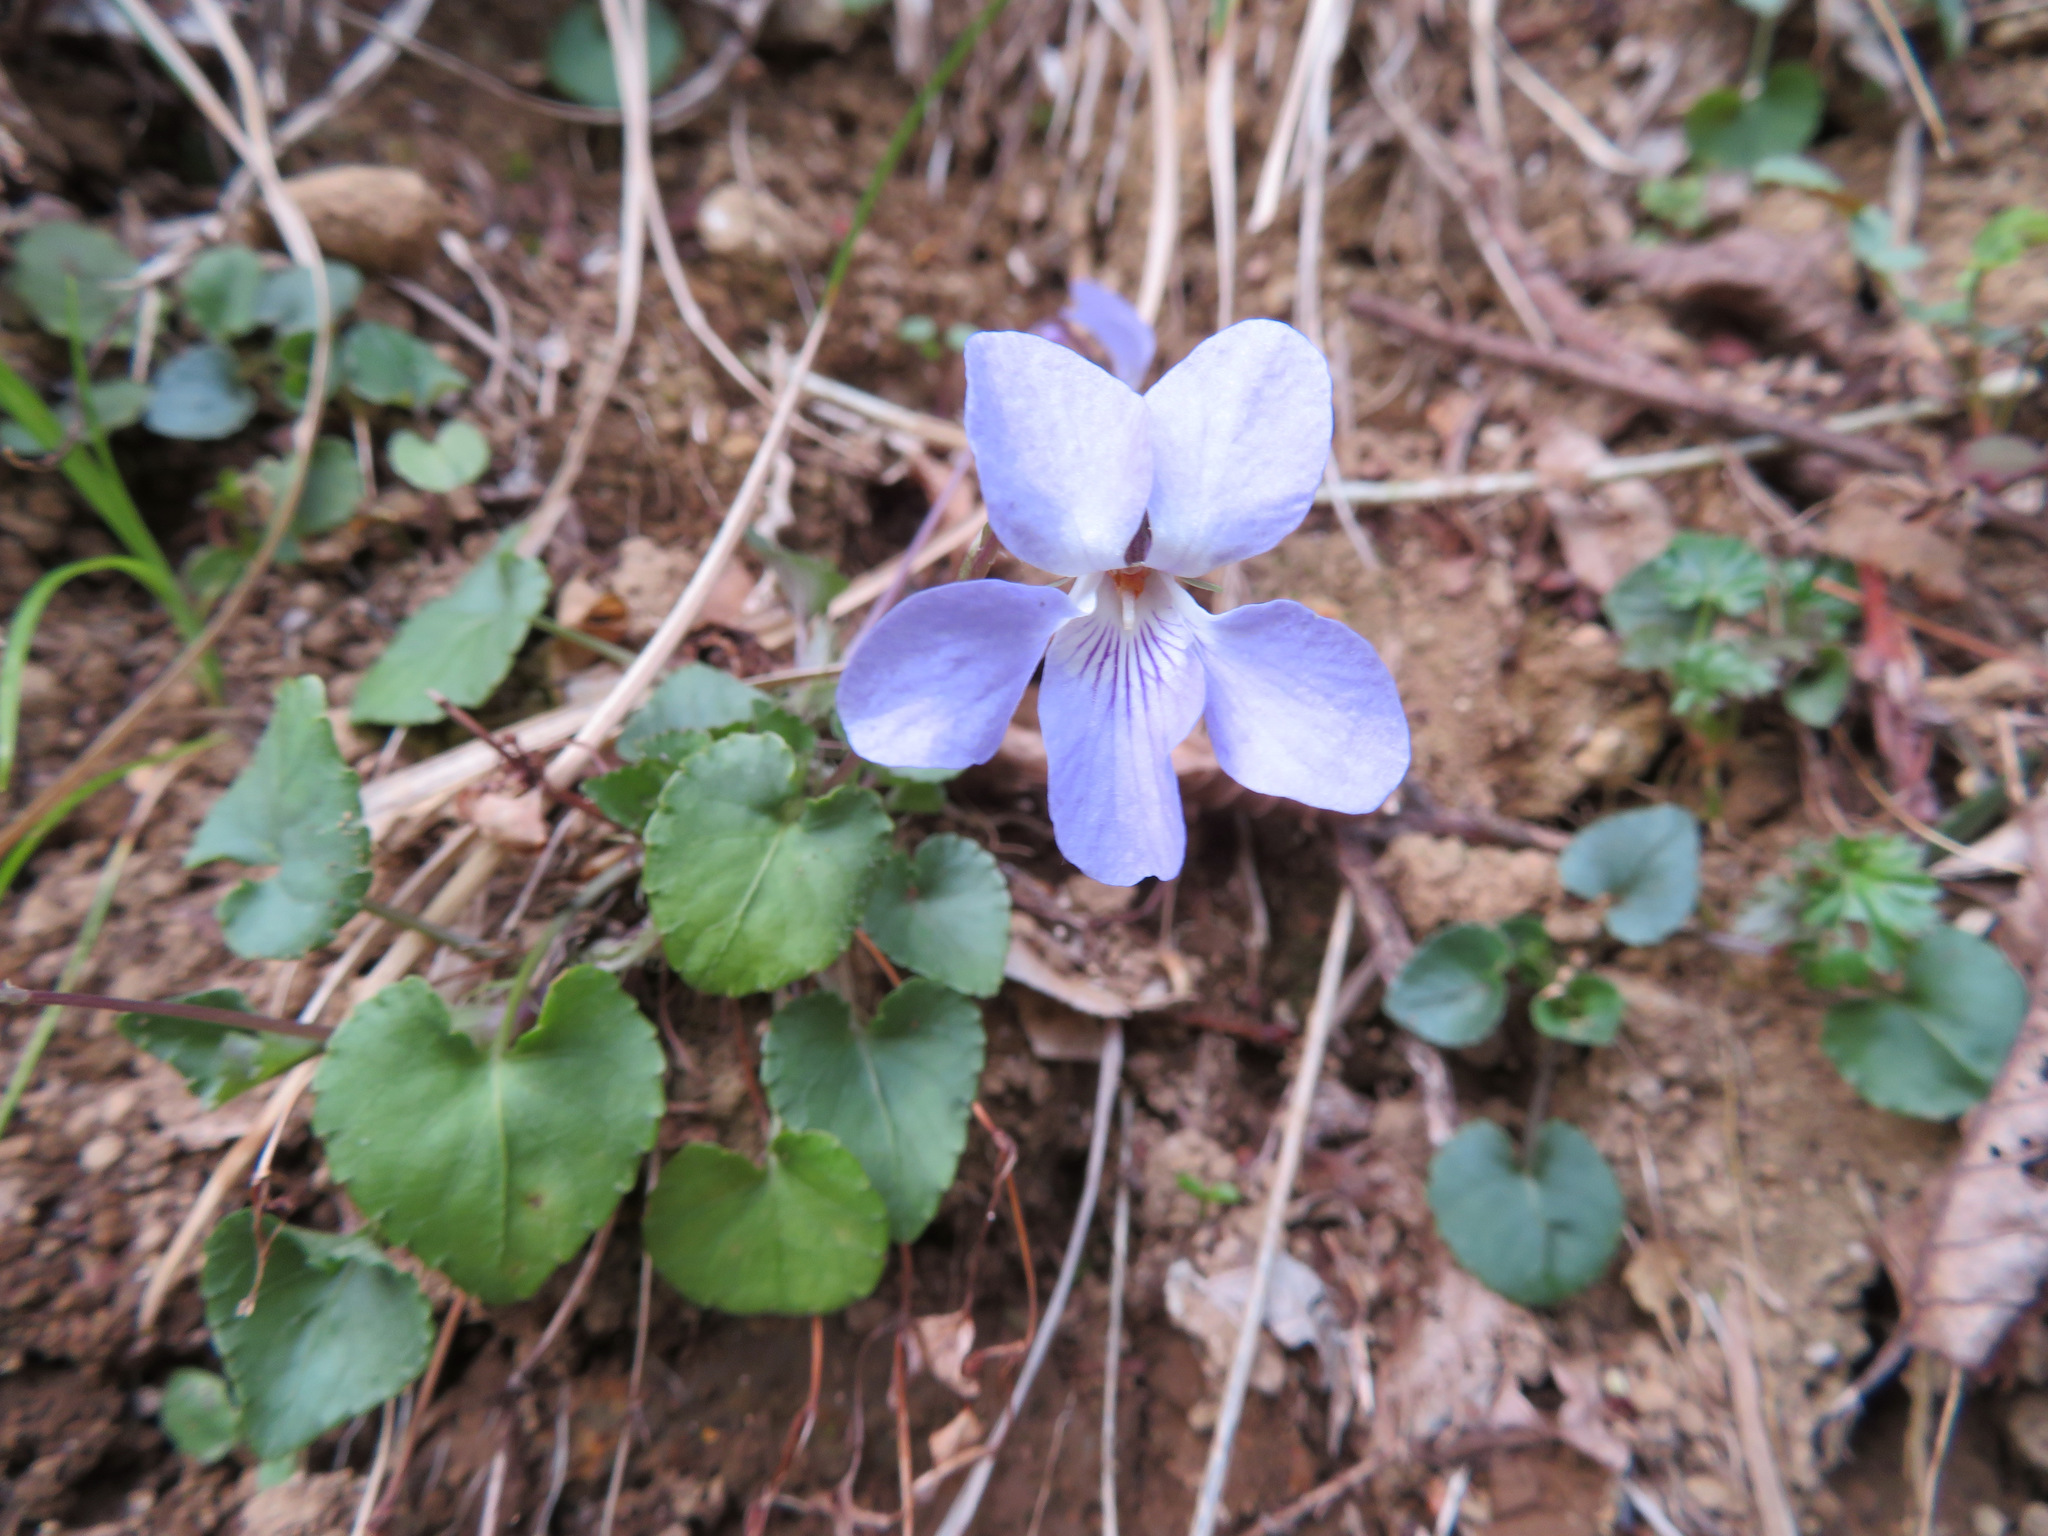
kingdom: Plantae
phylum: Tracheophyta
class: Magnoliopsida
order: Malpighiales
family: Violaceae
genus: Viola
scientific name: Viola grypoceras
